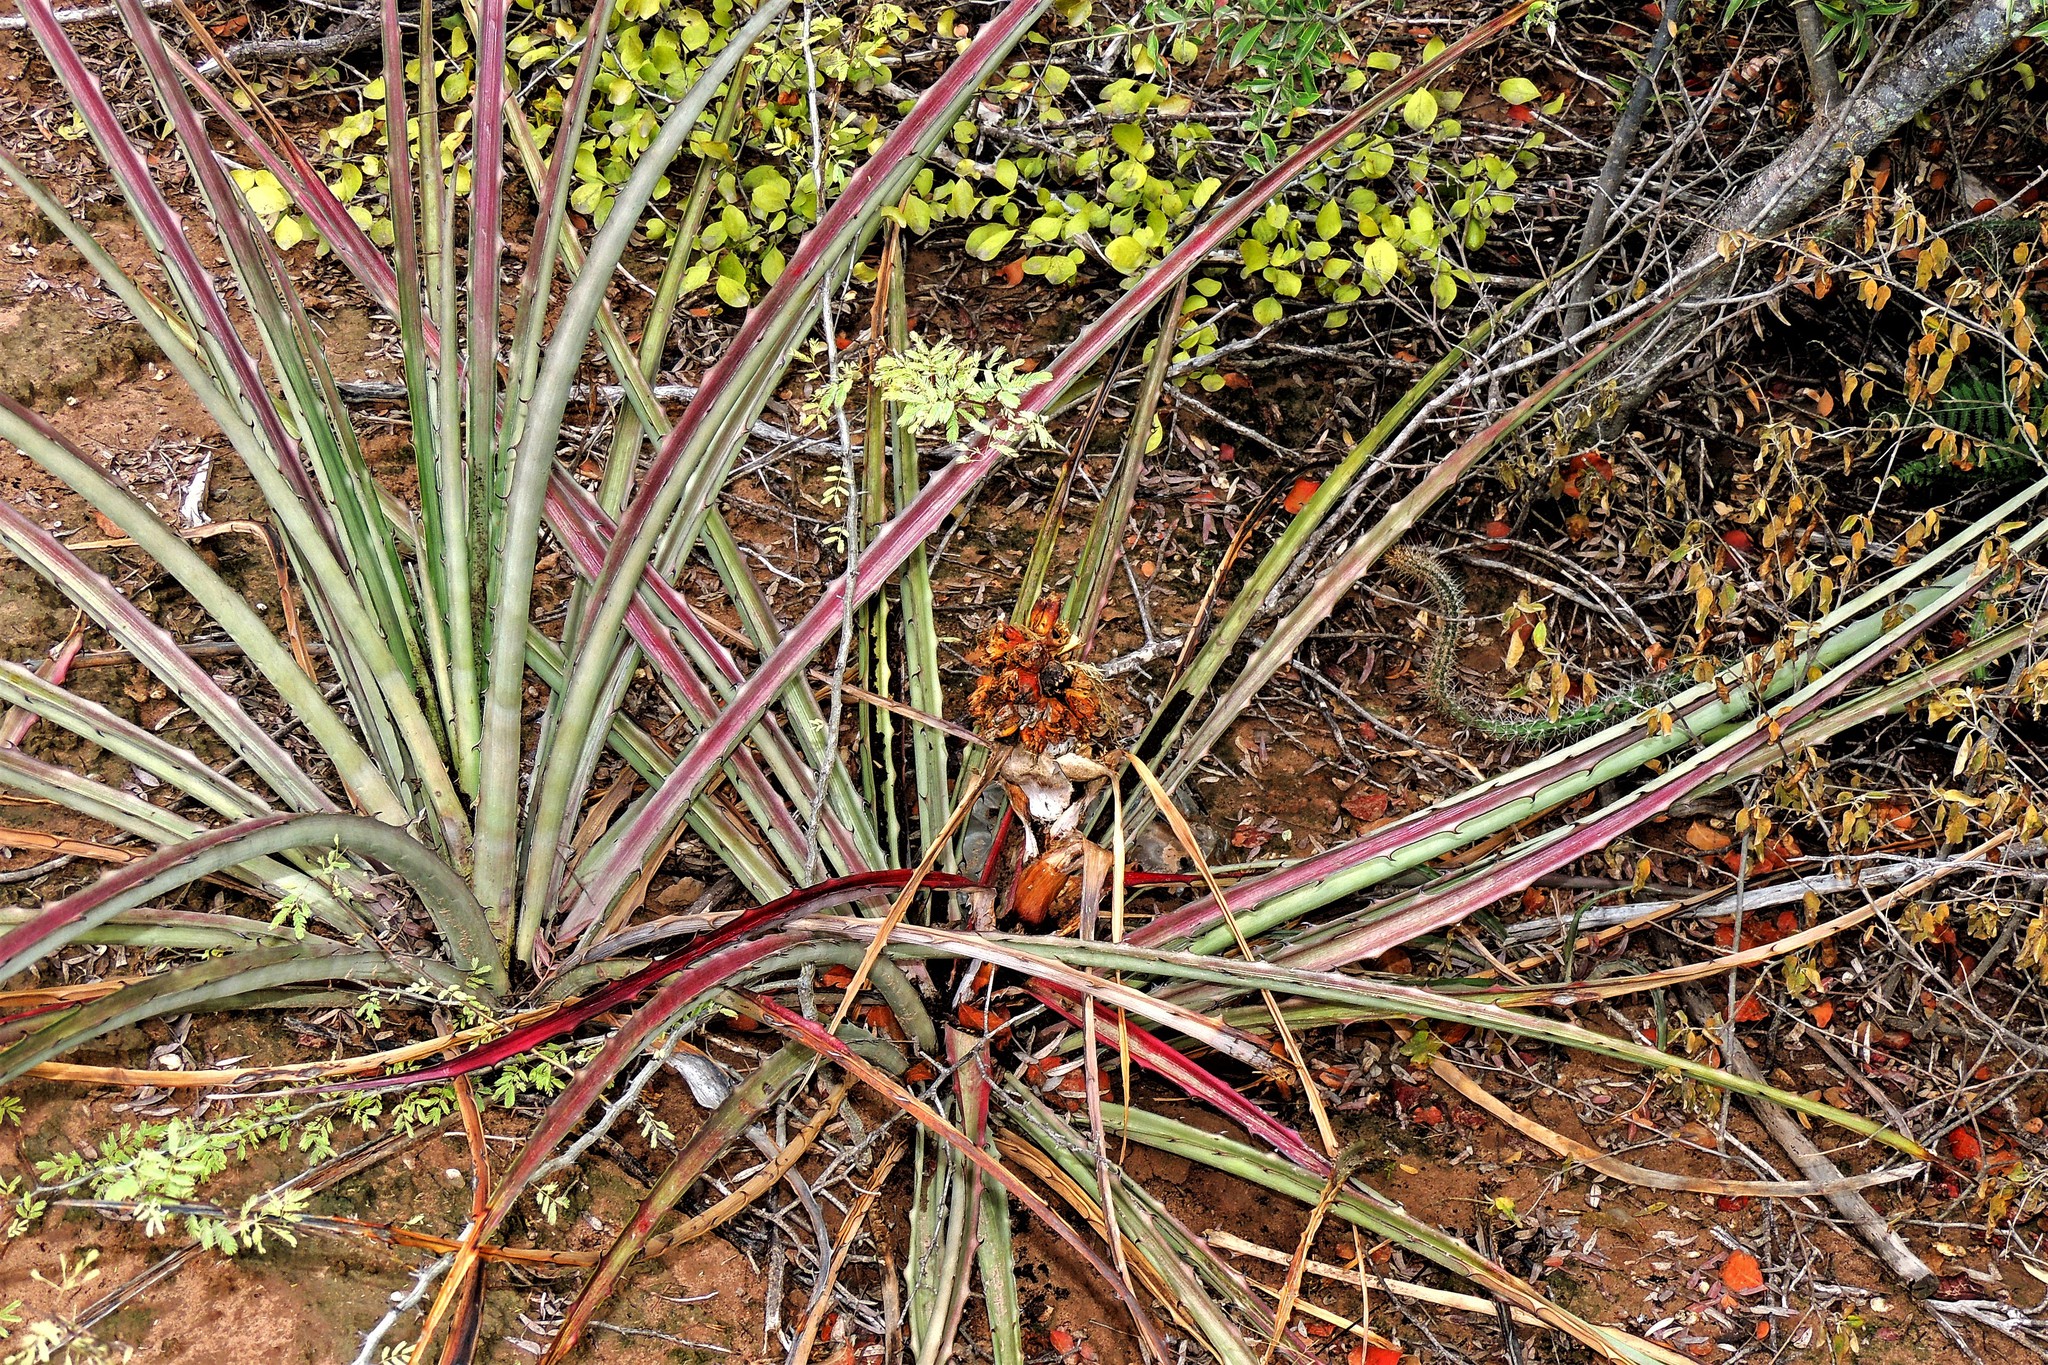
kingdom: Plantae
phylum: Tracheophyta
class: Liliopsida
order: Poales
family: Bromeliaceae
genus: Bromelia
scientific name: Bromelia serra
